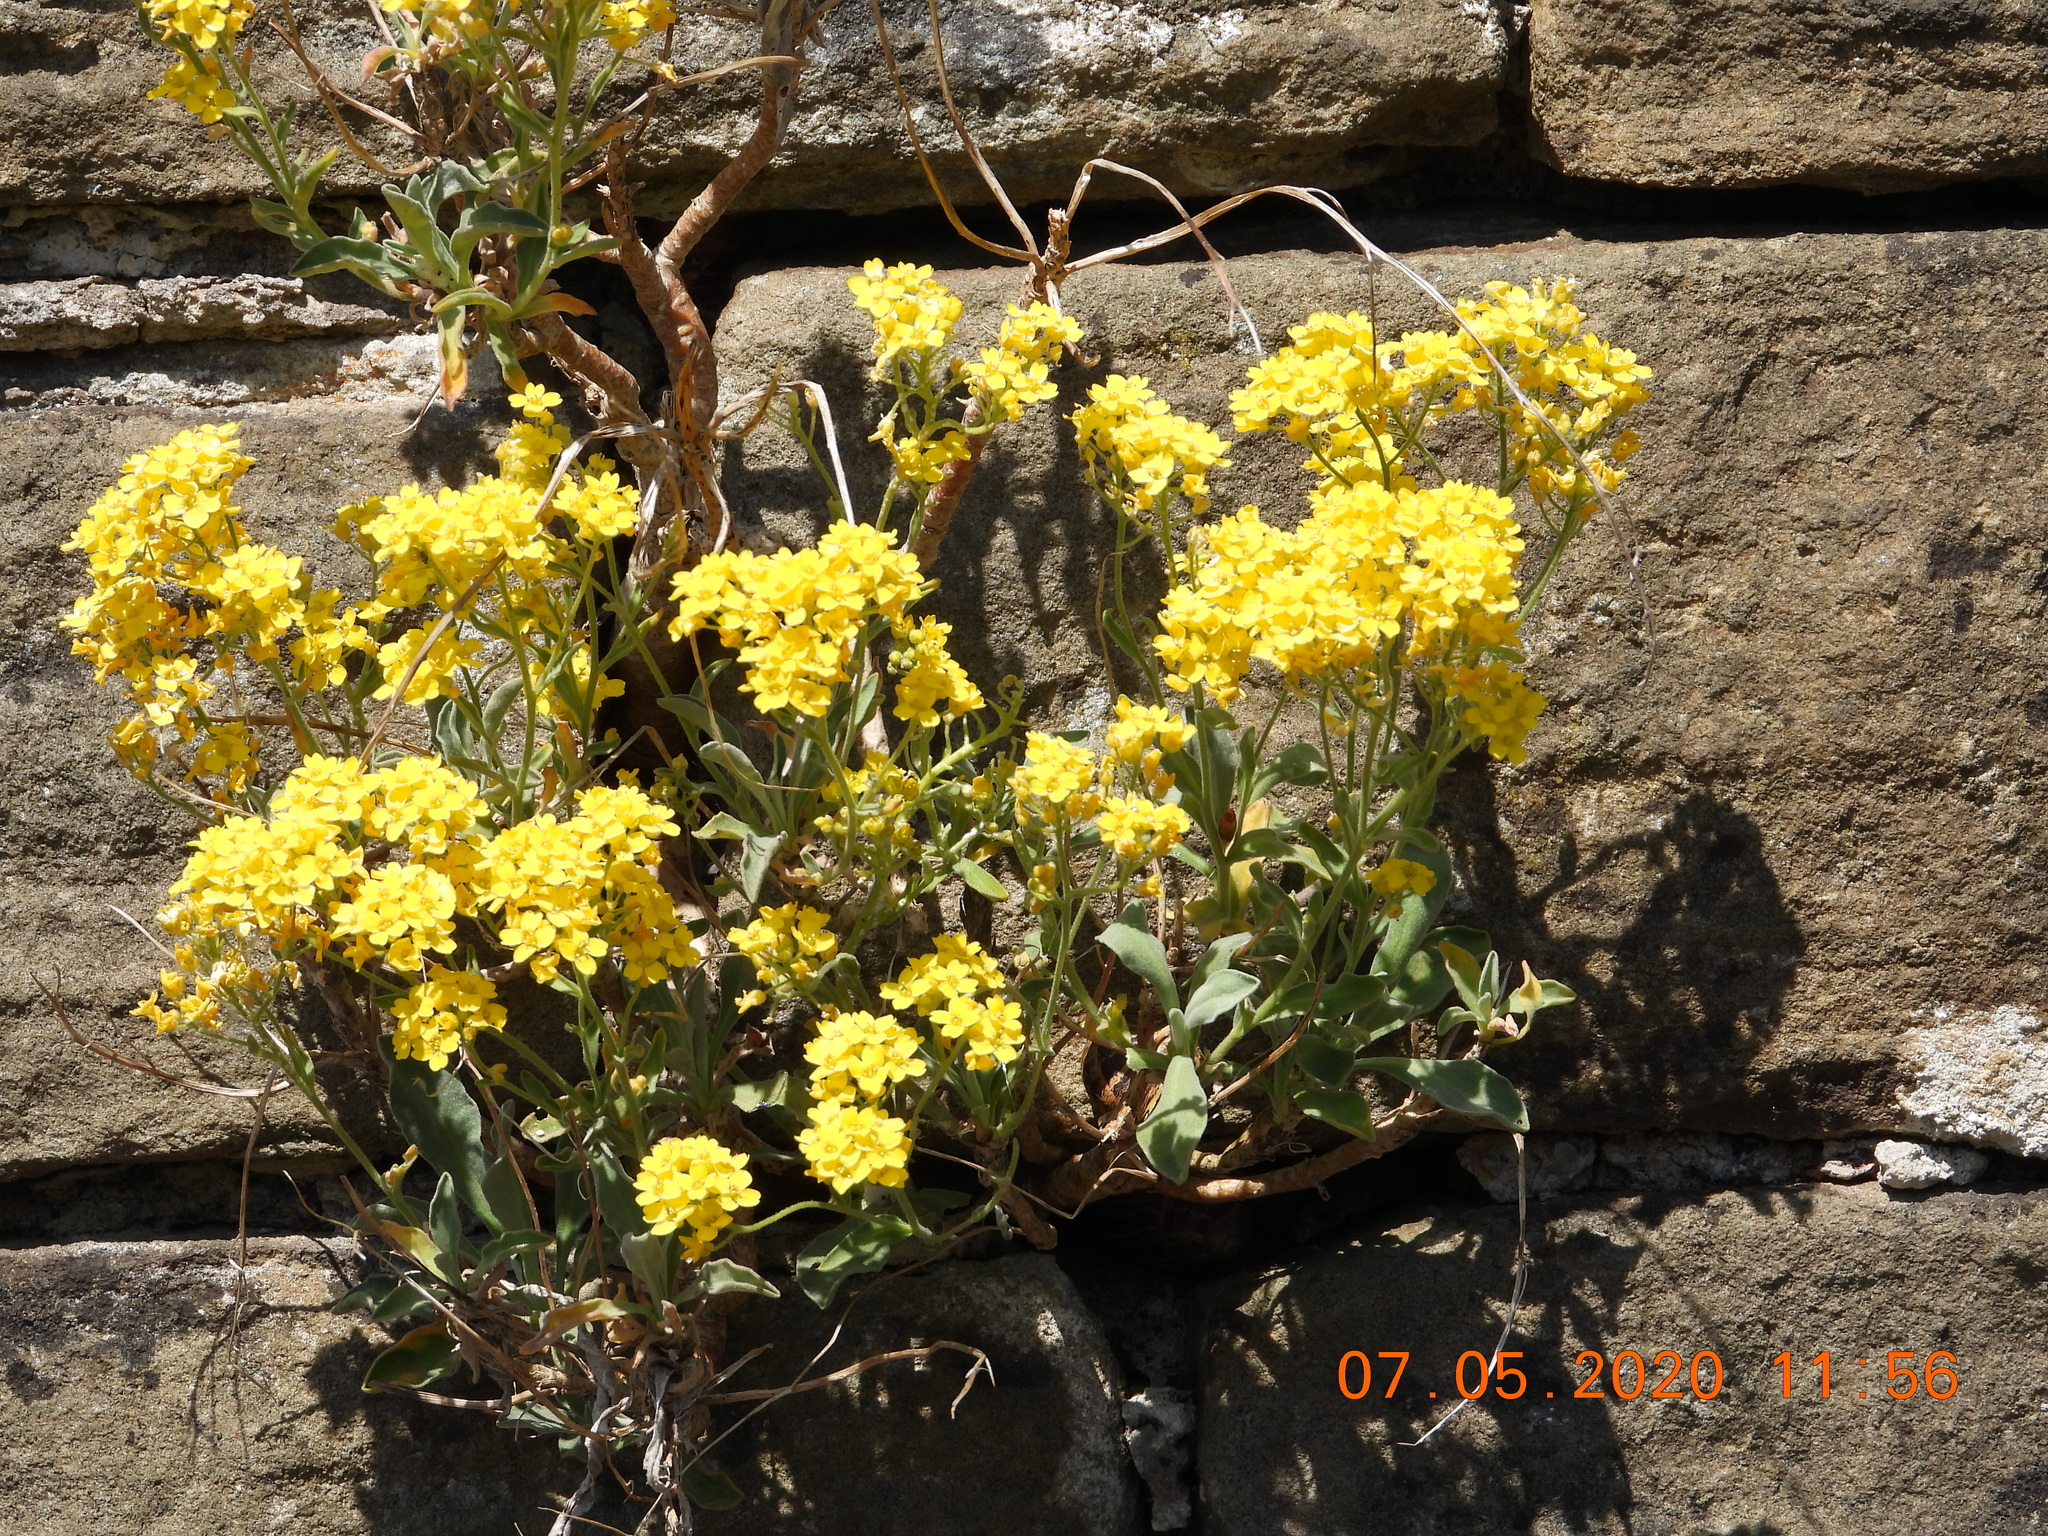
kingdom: Plantae
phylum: Tracheophyta
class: Magnoliopsida
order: Brassicales
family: Brassicaceae
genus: Aurinia
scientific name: Aurinia saxatilis
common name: Golden-tuft alyssum
